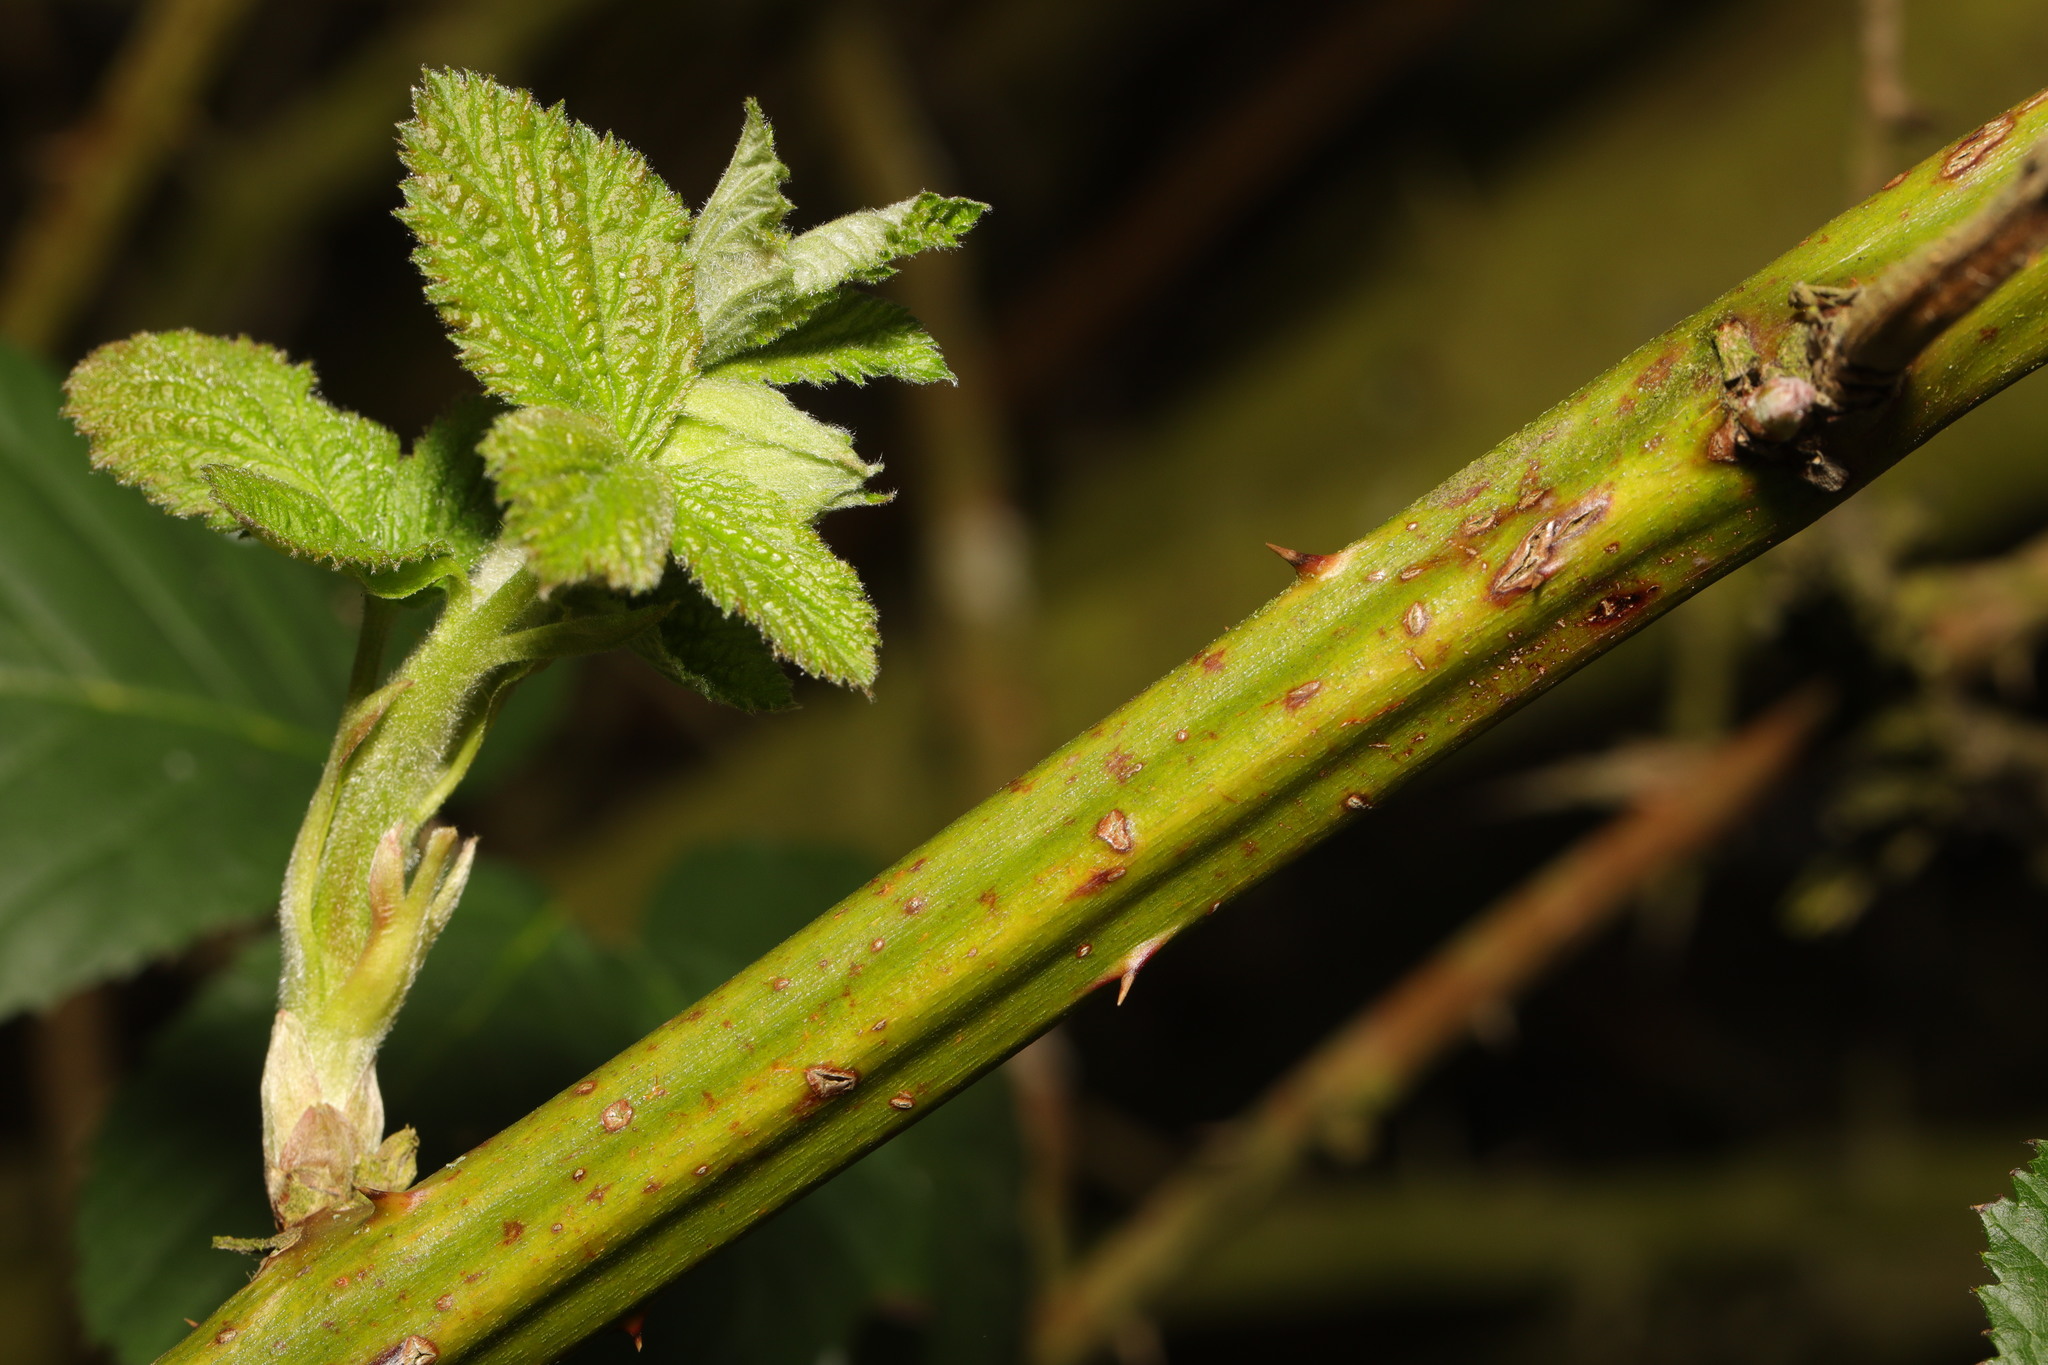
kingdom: Plantae
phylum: Tracheophyta
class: Magnoliopsida
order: Rosales
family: Rosaceae
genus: Rubus
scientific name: Rubus armeniacus
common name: Himalayan blackberry
